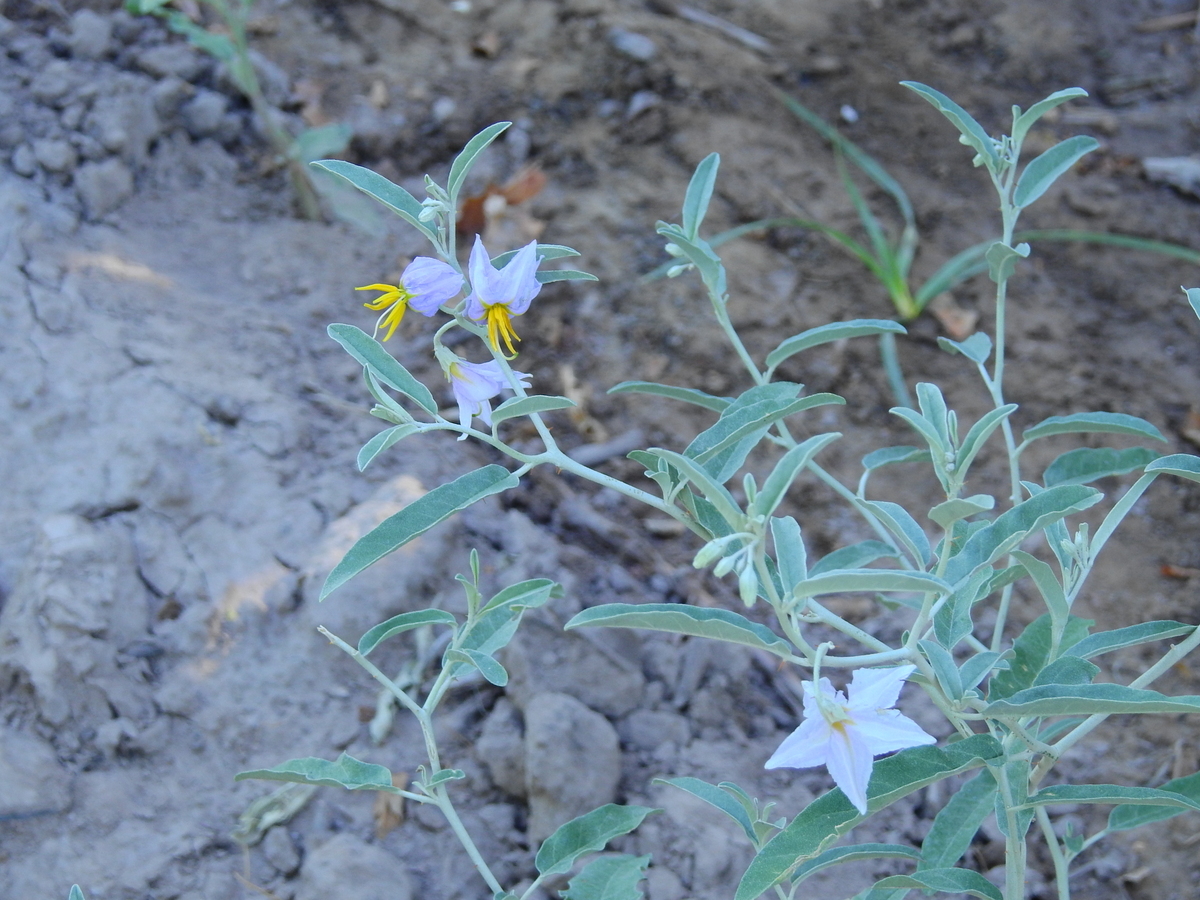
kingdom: Plantae
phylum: Tracheophyta
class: Magnoliopsida
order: Solanales
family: Solanaceae
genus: Solanum
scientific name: Solanum elaeagnifolium
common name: Silverleaf nightshade
